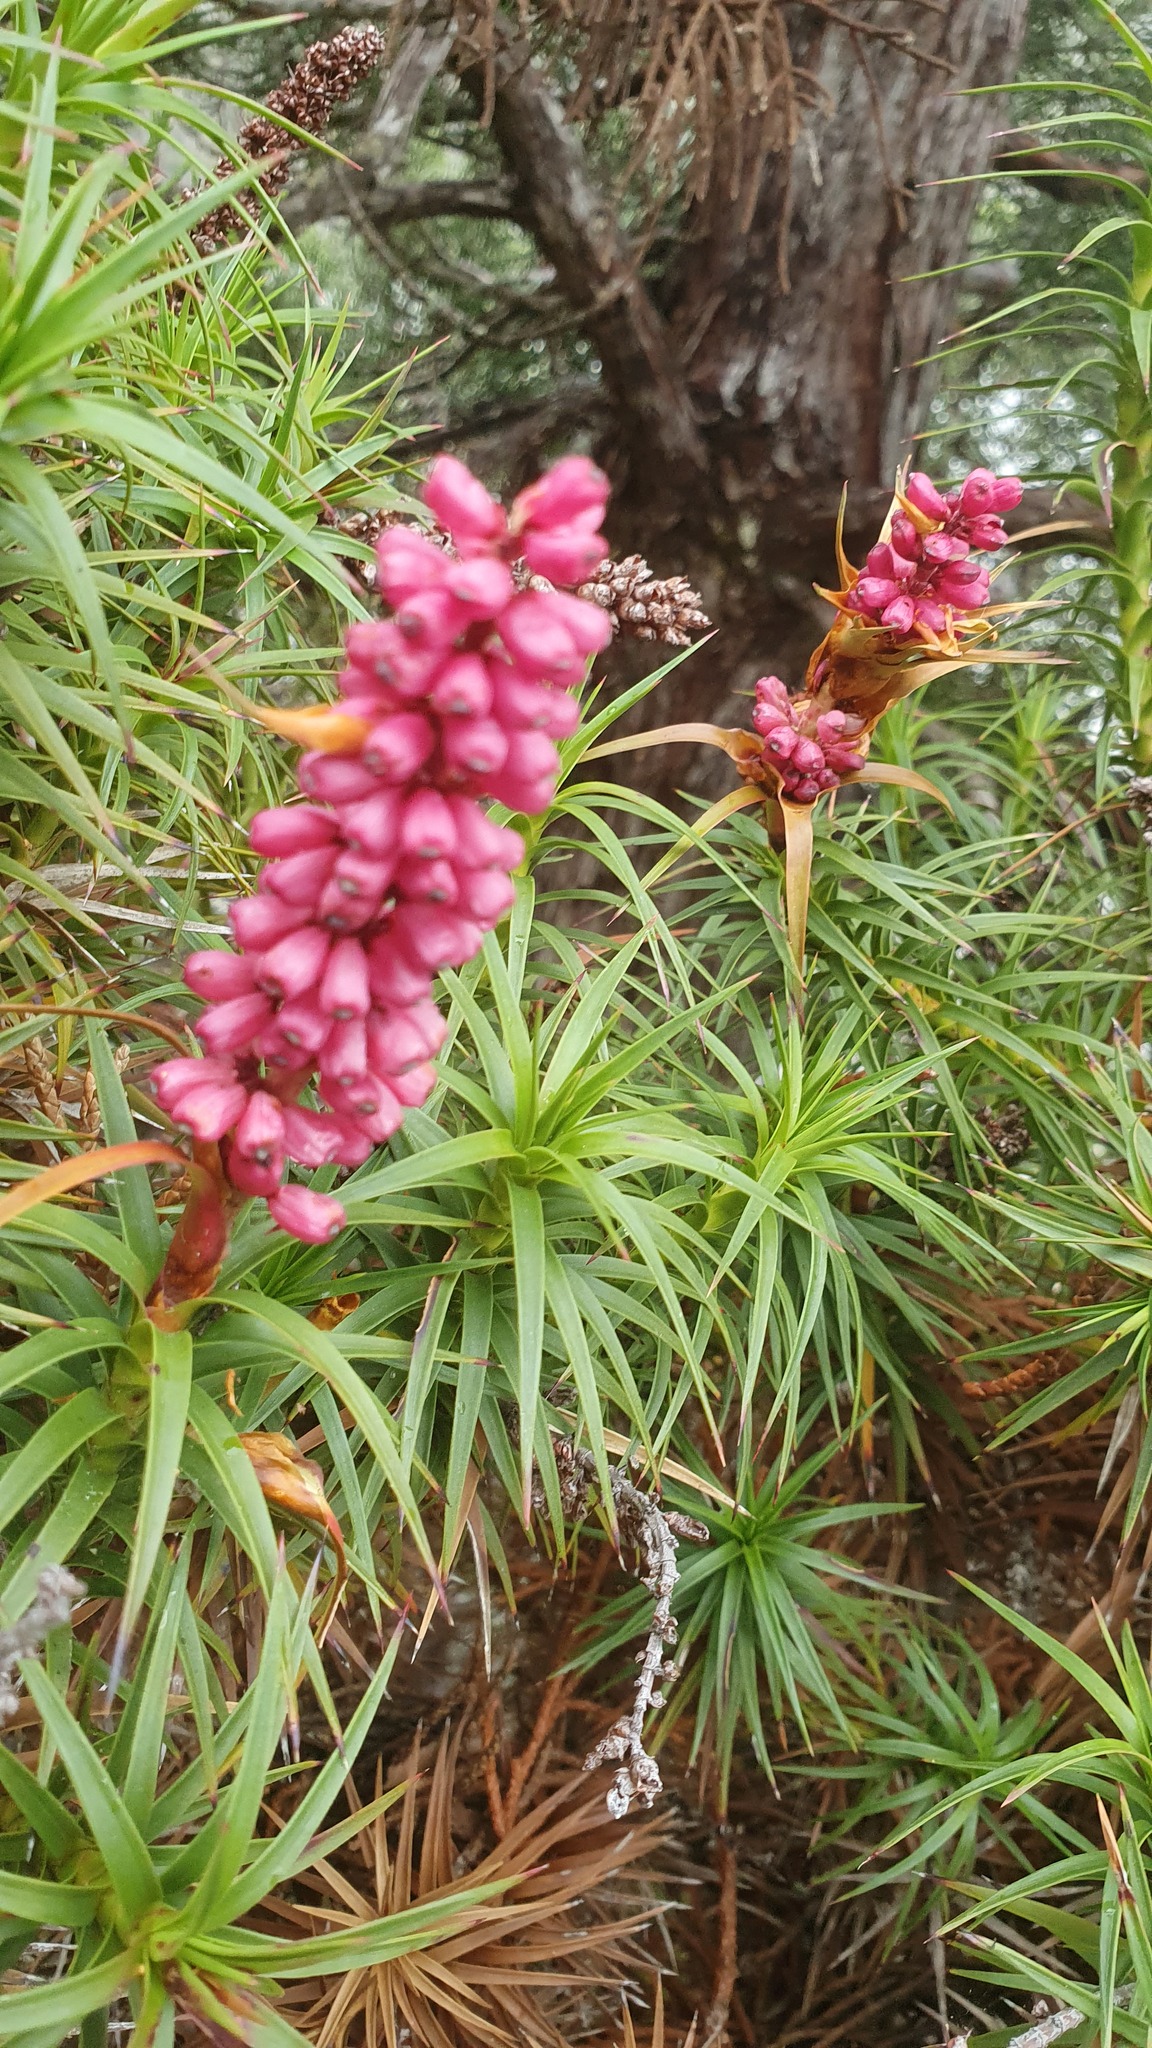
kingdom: Plantae
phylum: Tracheophyta
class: Magnoliopsida
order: Ericales
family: Ericaceae
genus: Dracophyllum
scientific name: Dracophyllum persistentifolium
